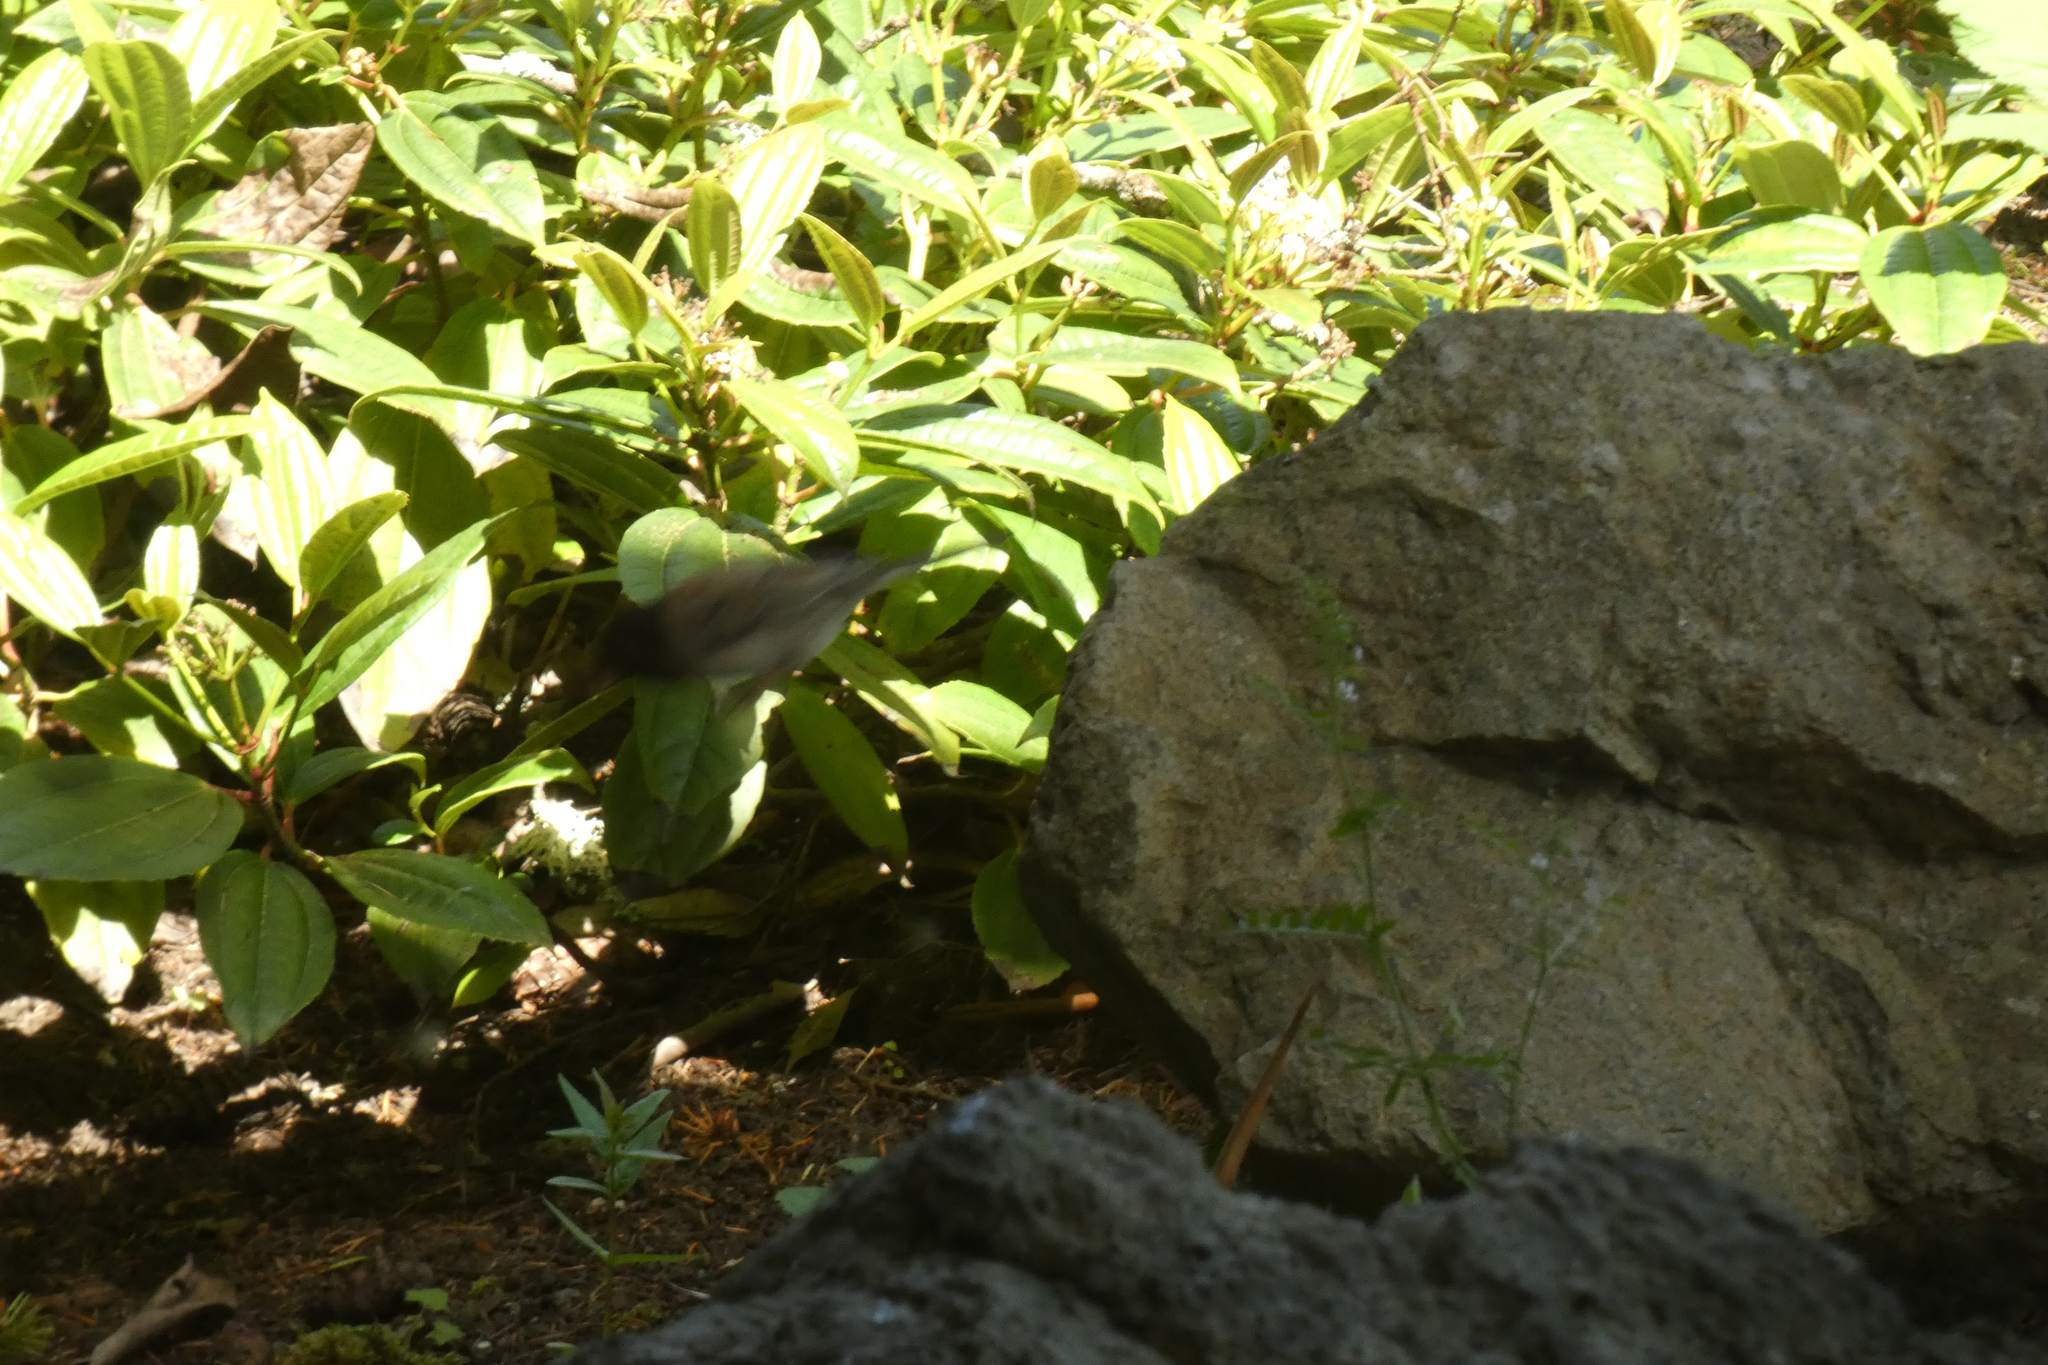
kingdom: Animalia
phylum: Chordata
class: Aves
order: Passeriformes
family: Passerellidae
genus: Junco
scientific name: Junco hyemalis
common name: Dark-eyed junco
